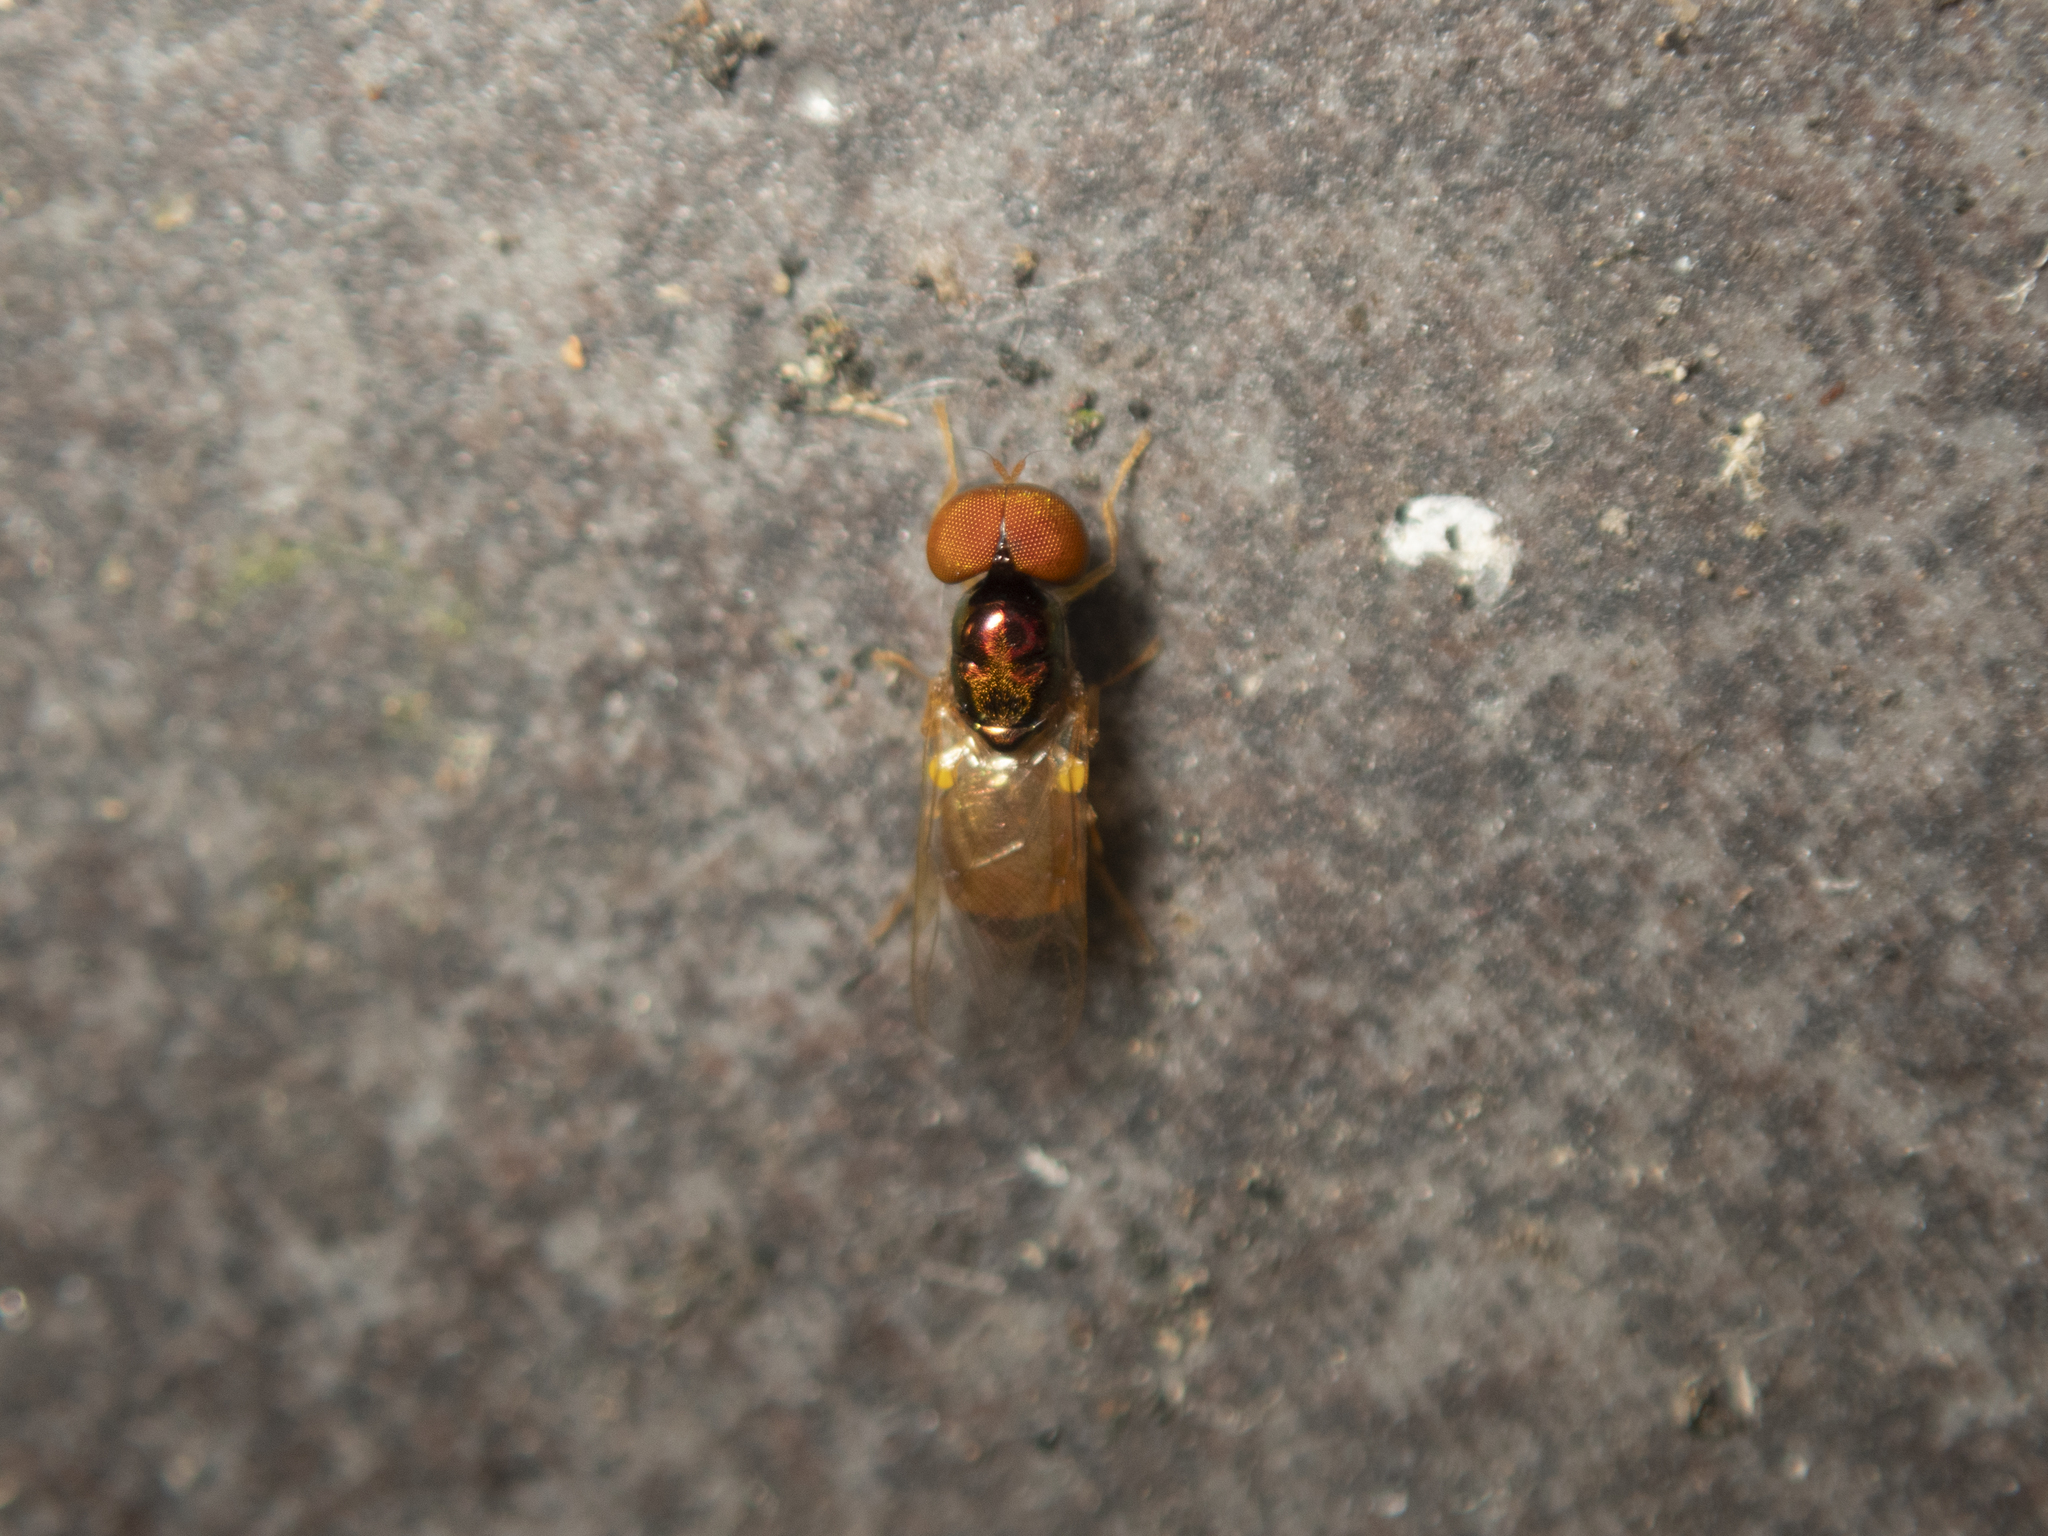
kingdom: Animalia
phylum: Arthropoda
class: Insecta
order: Diptera
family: Stratiomyidae
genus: Microchrysa
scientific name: Microchrysa flaviventris
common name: Soldier fly
